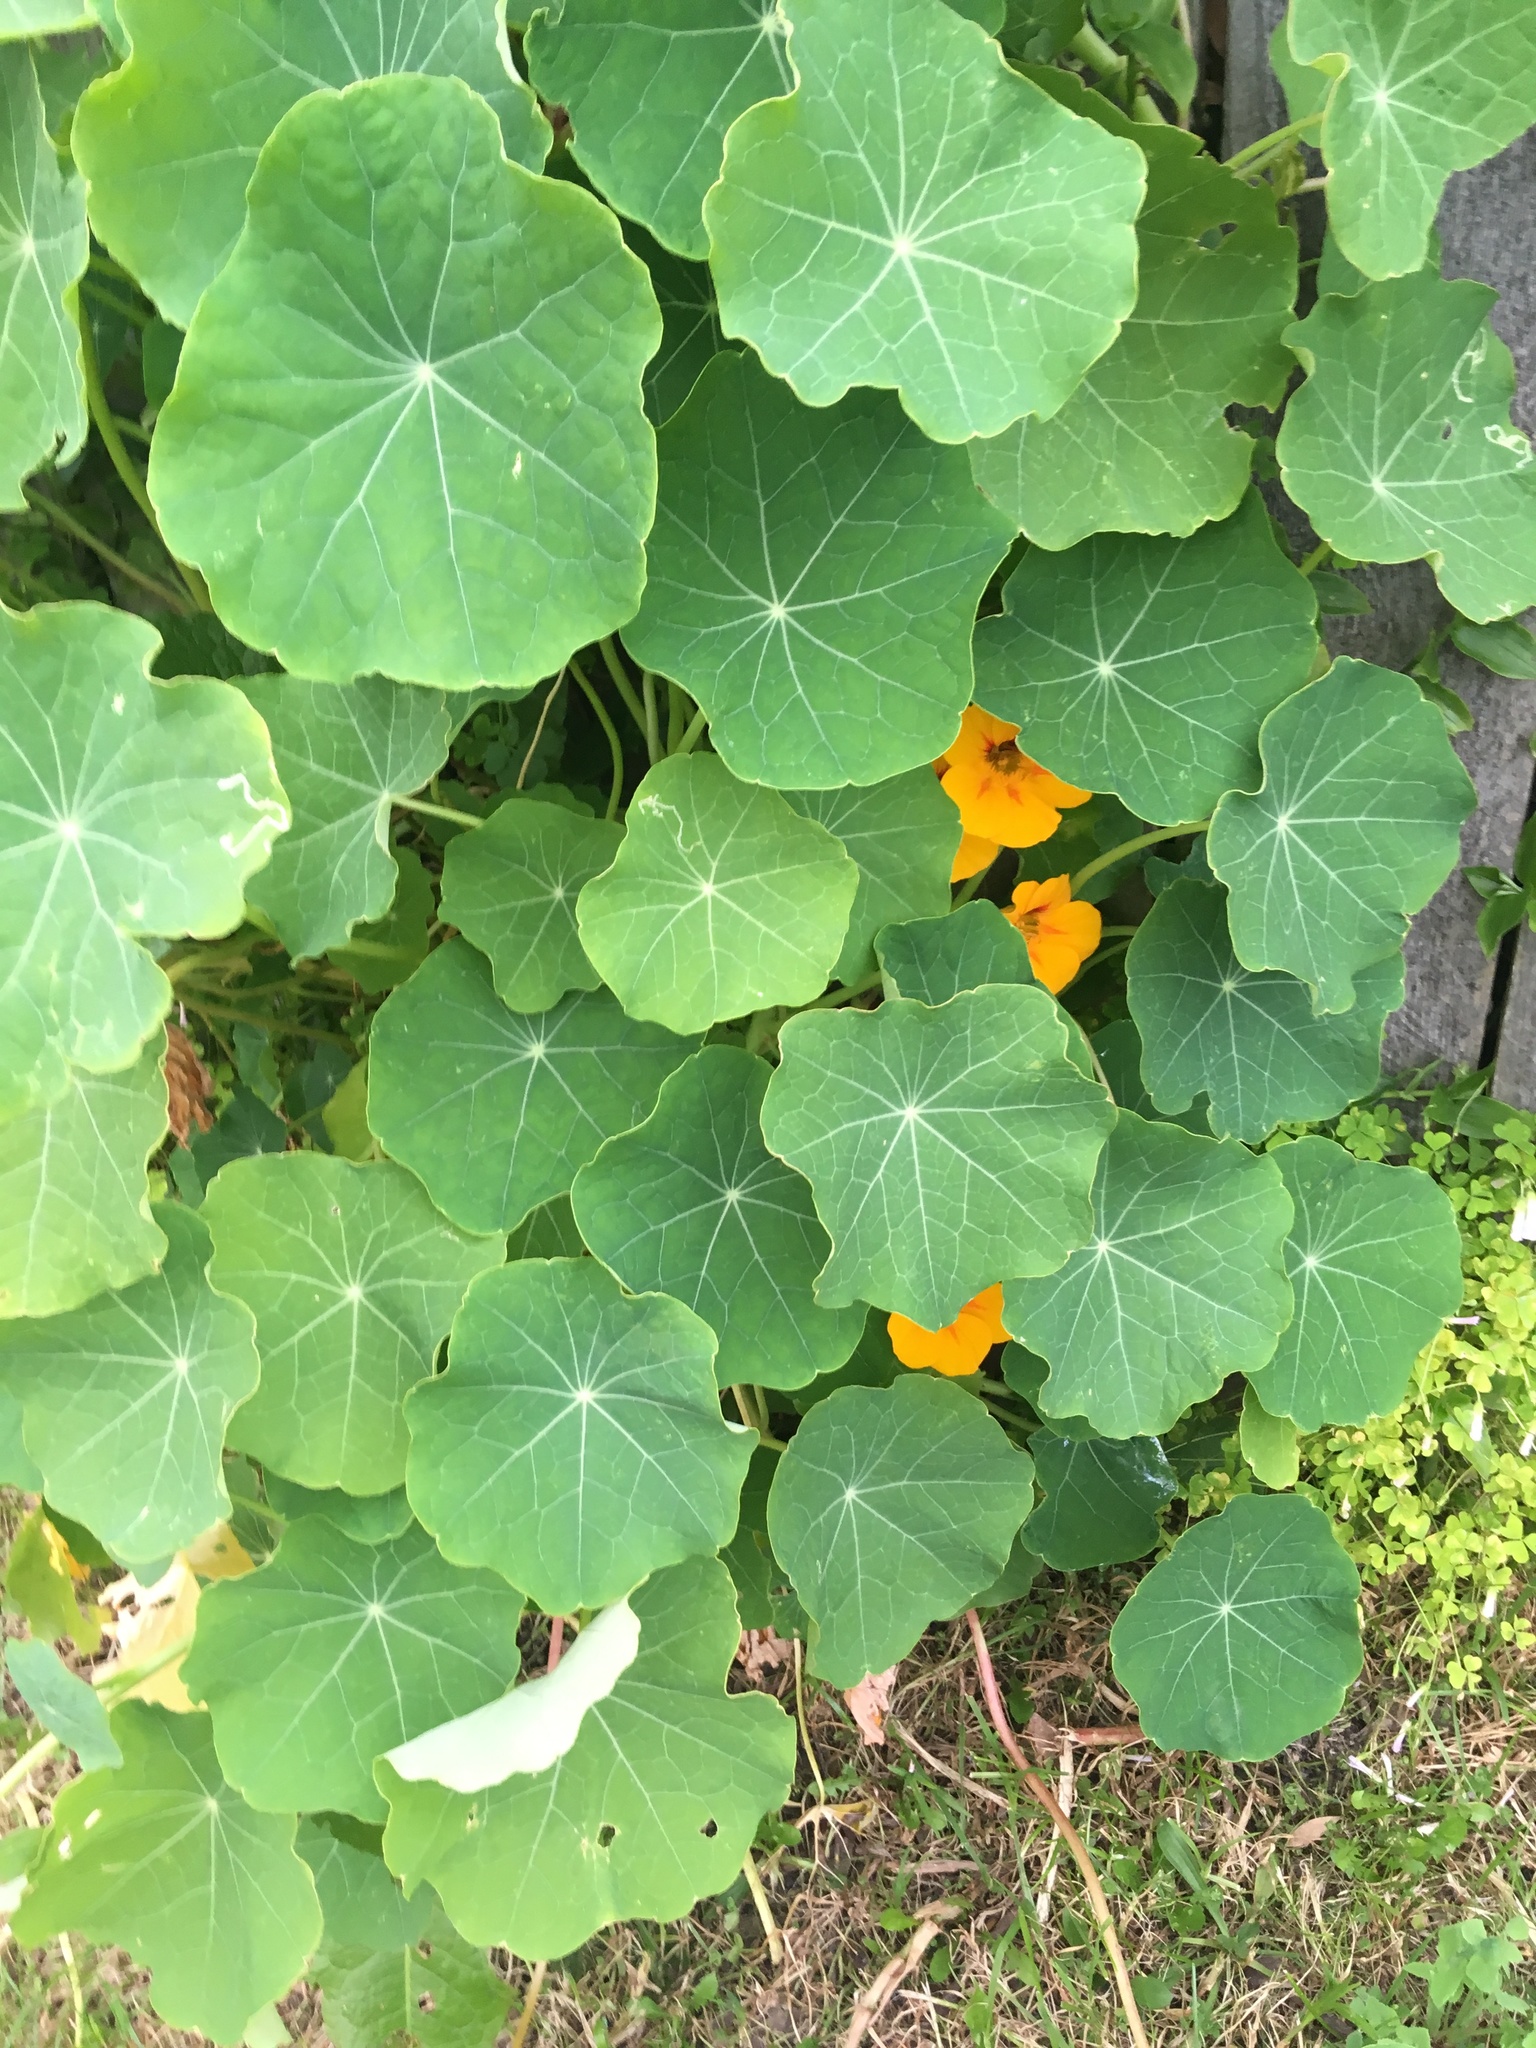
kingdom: Plantae
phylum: Tracheophyta
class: Magnoliopsida
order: Brassicales
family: Tropaeolaceae
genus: Tropaeolum
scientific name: Tropaeolum majus
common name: Nasturtium
